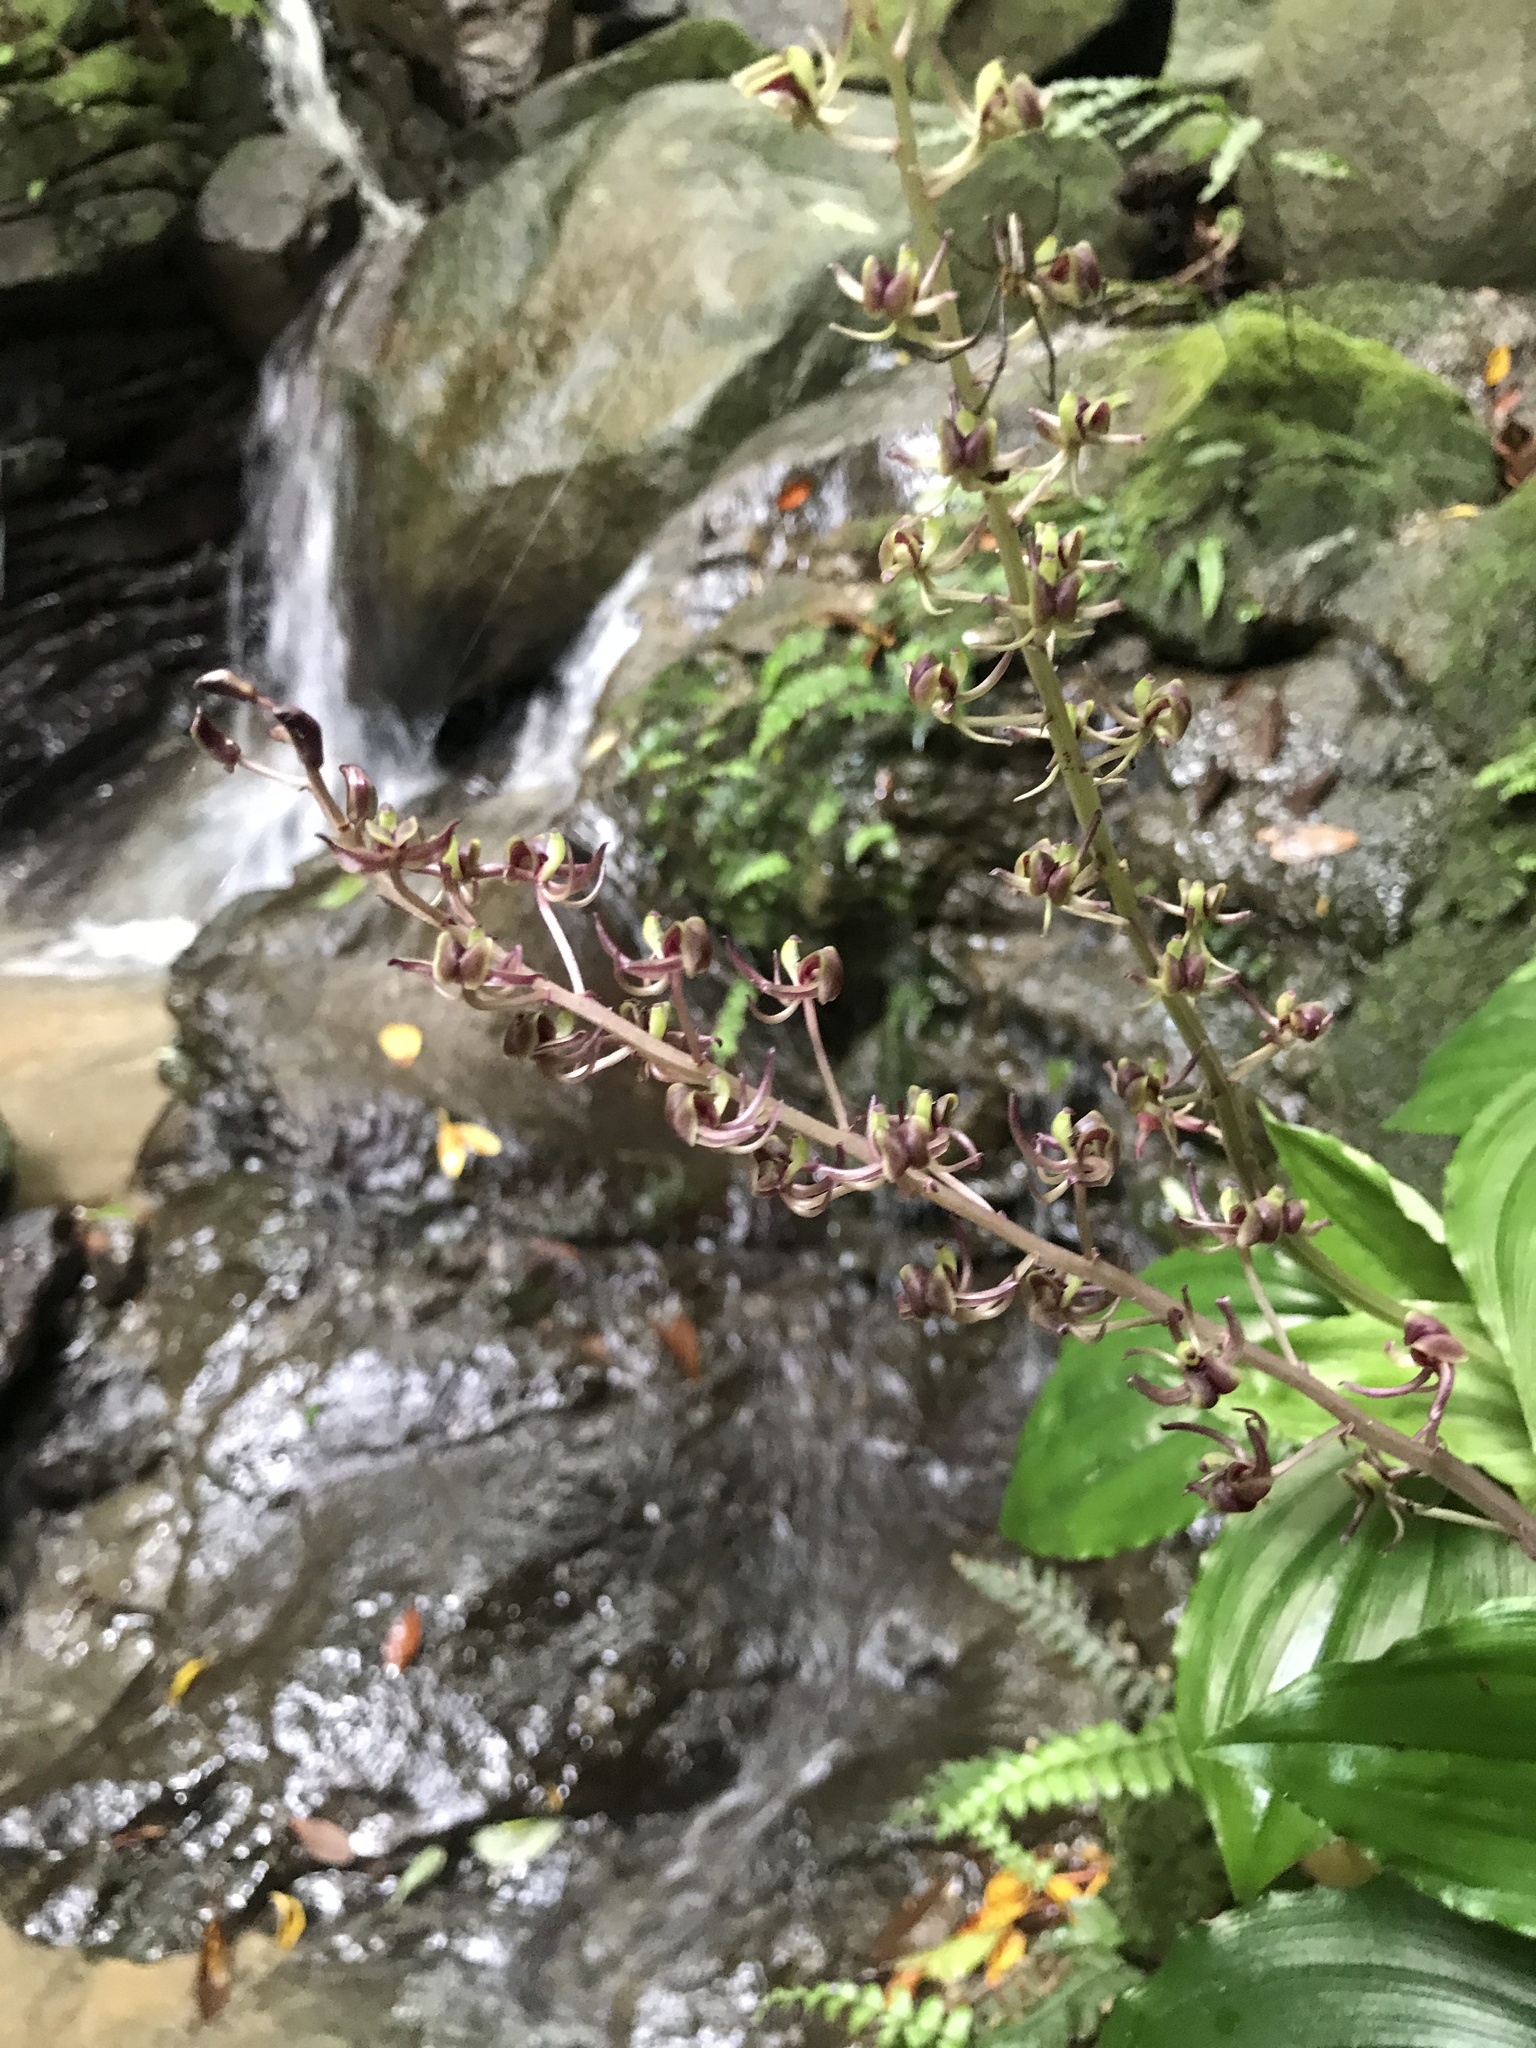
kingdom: Plantae
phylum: Tracheophyta
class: Liliopsida
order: Asparagales
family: Orchidaceae
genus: Liparis
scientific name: Liparis formosana
